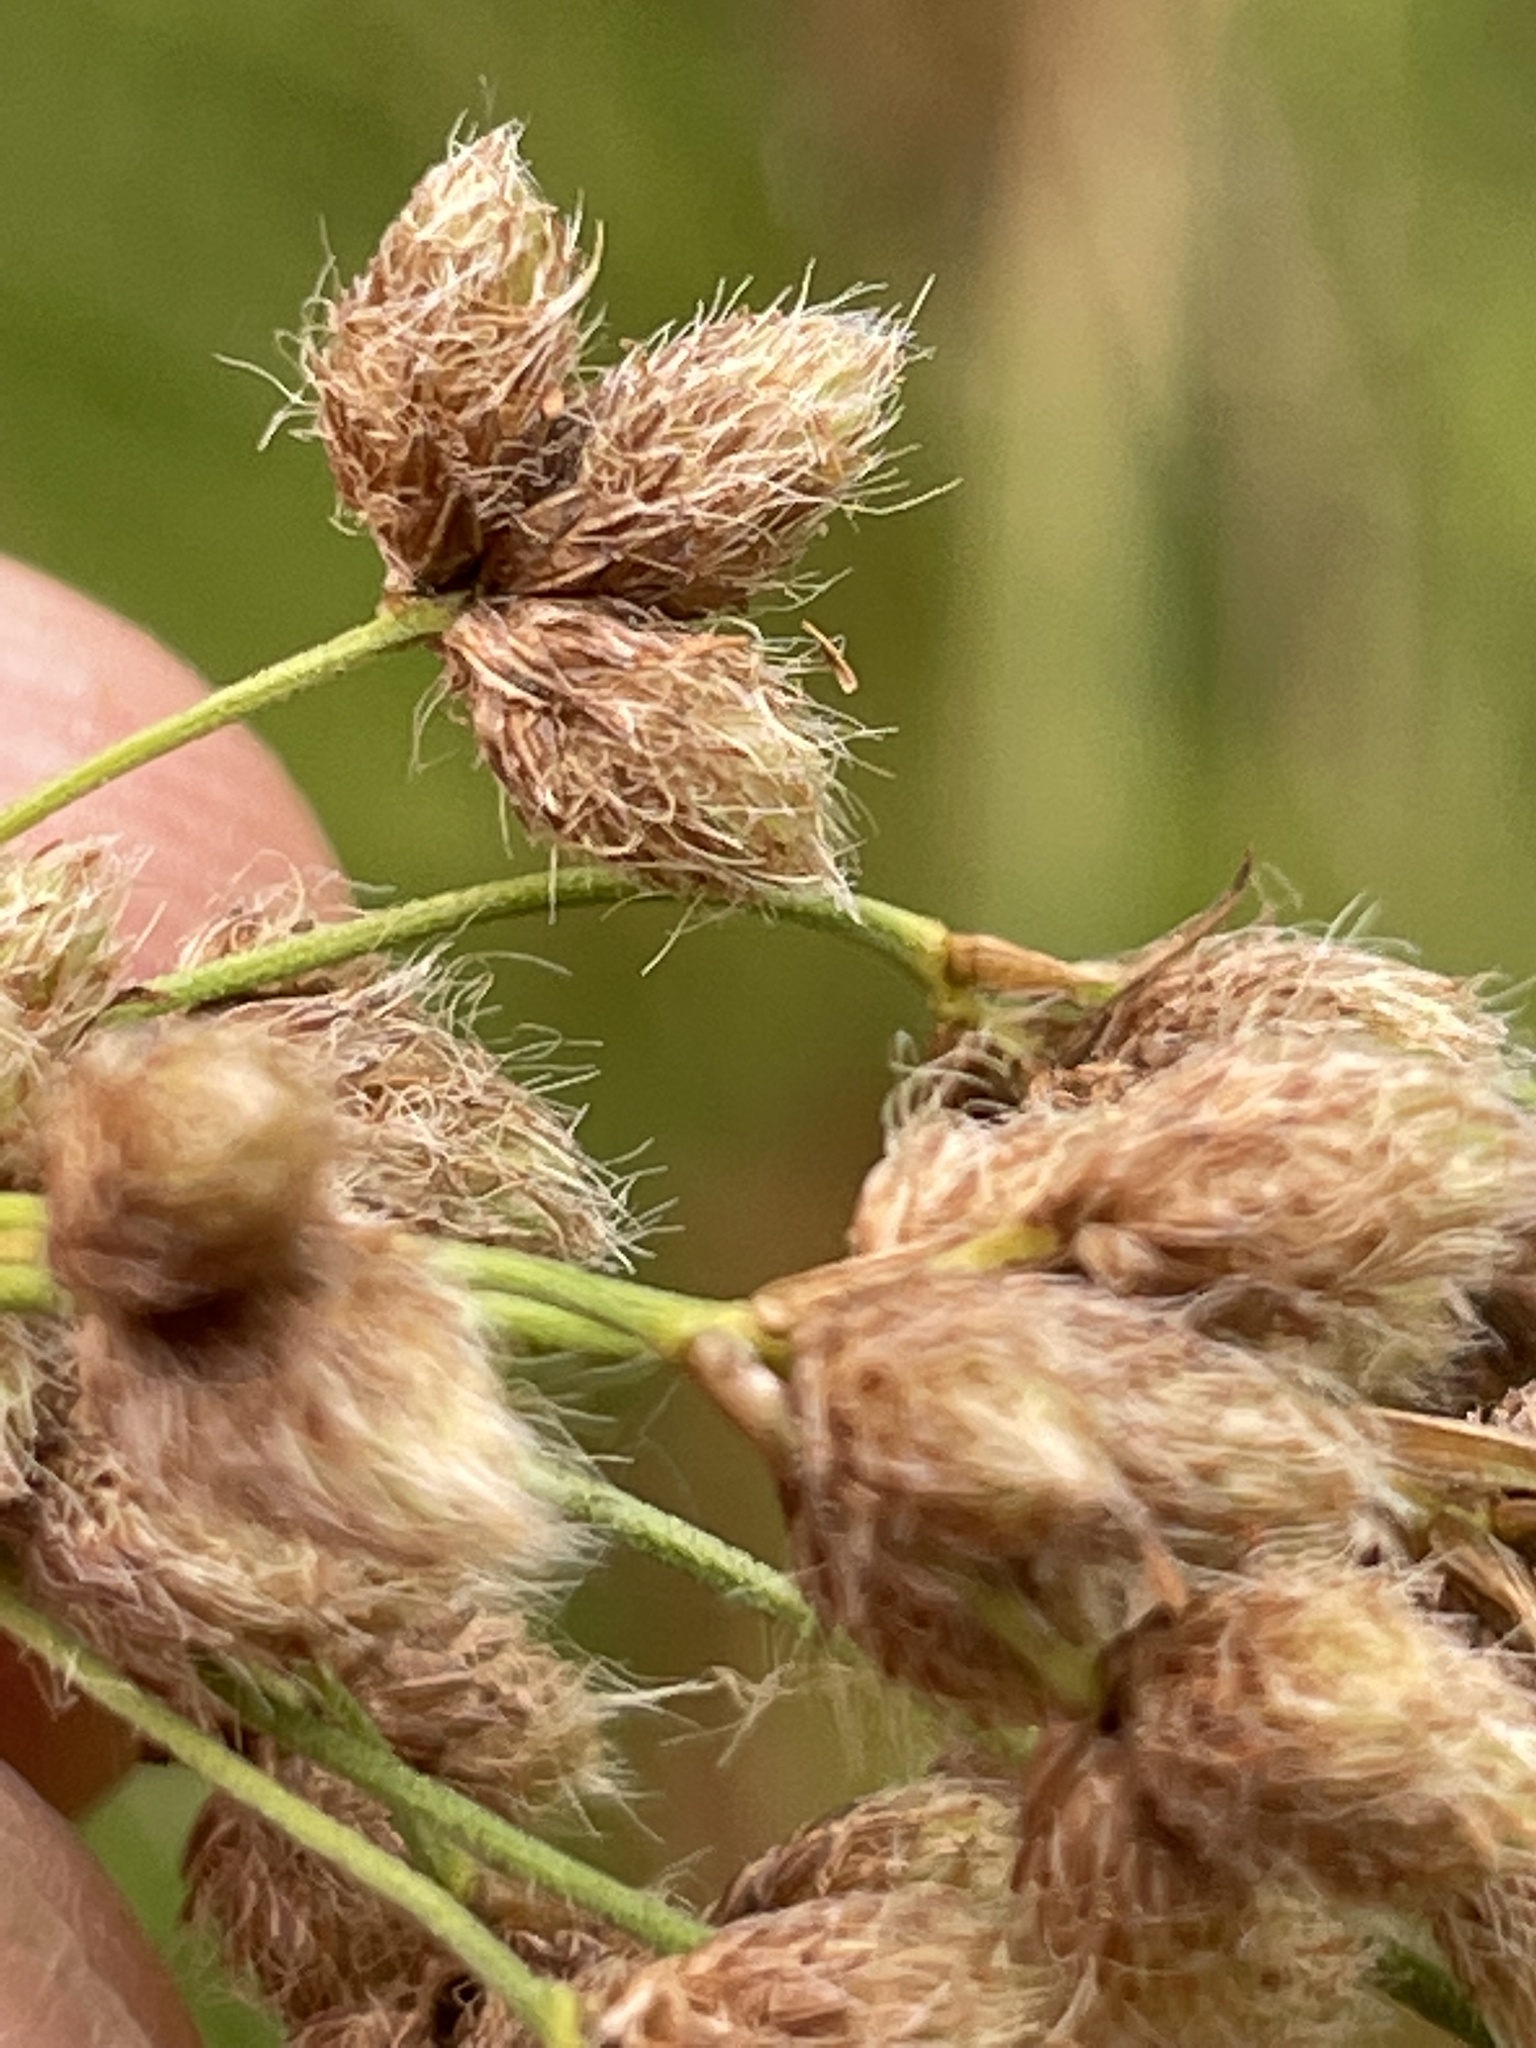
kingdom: Plantae
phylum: Tracheophyta
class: Liliopsida
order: Poales
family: Cyperaceae
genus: Scirpus
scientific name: Scirpus cyperinus
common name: Black-sheathed bulrush
